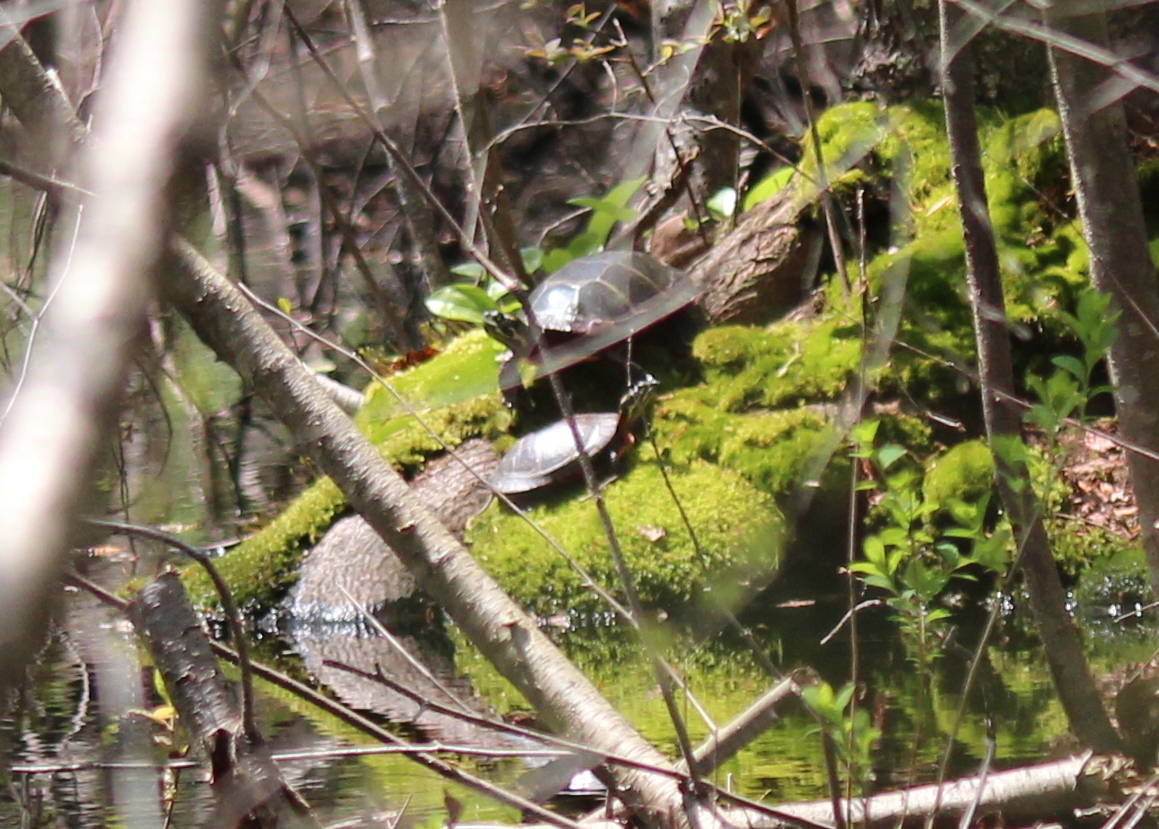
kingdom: Animalia
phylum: Chordata
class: Testudines
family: Emydidae
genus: Chrysemys
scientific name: Chrysemys picta
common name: Painted turtle
